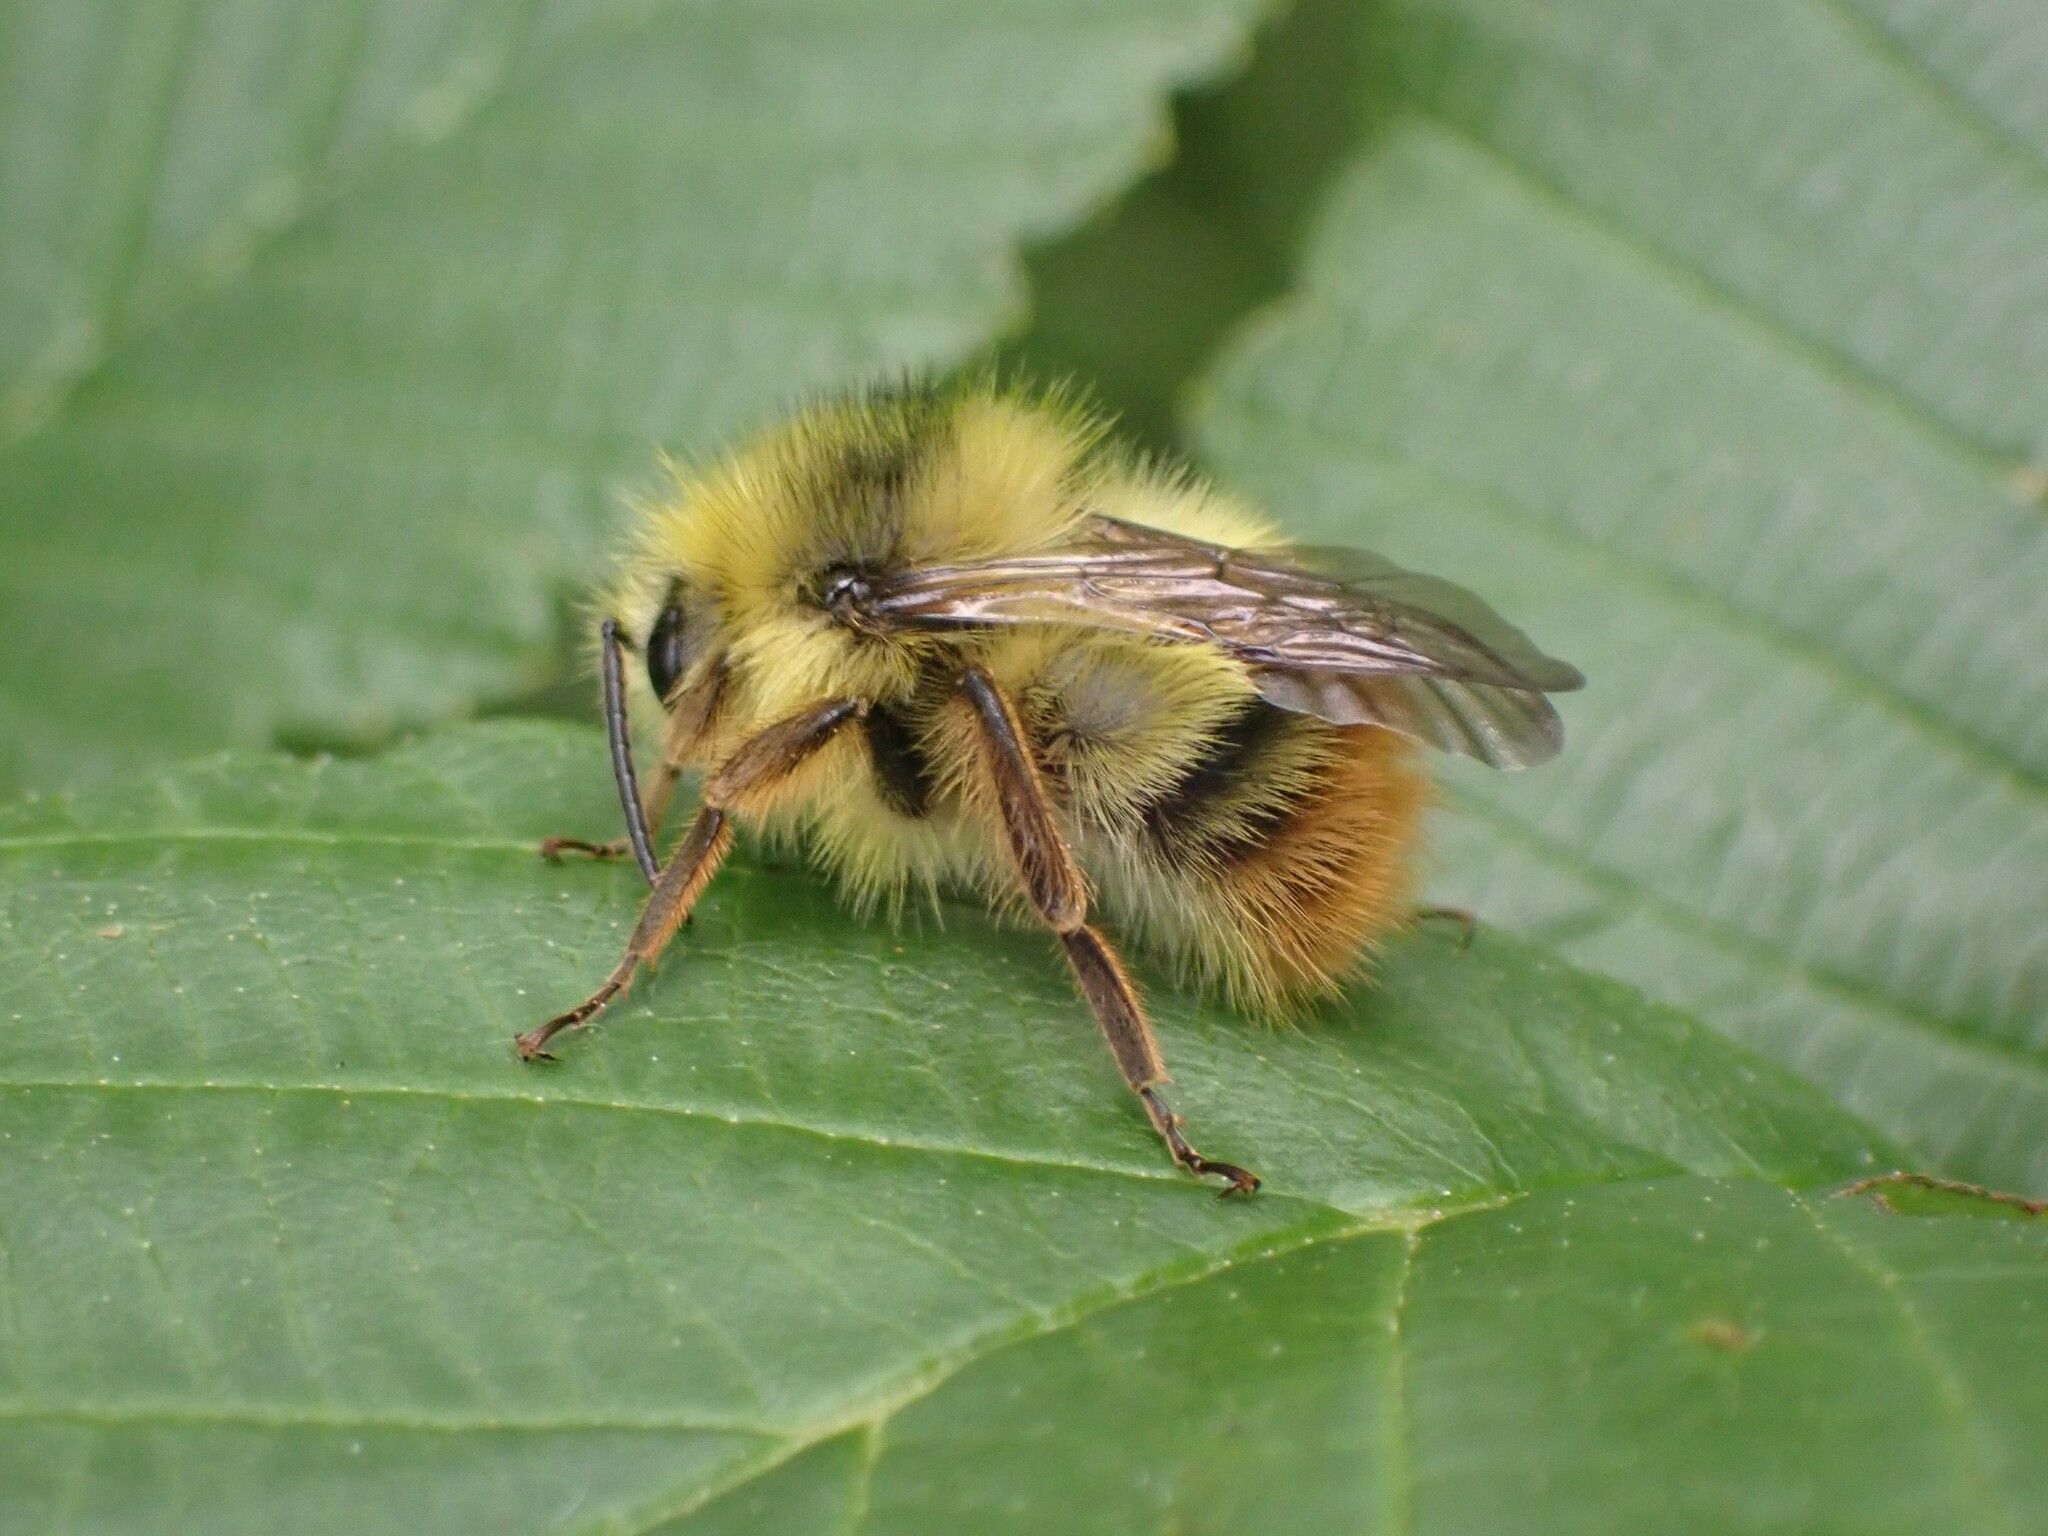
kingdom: Animalia
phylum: Arthropoda
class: Insecta
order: Hymenoptera
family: Apidae
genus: Bombus
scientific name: Bombus mixtus
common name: Fuzzy-horned bumble bee
